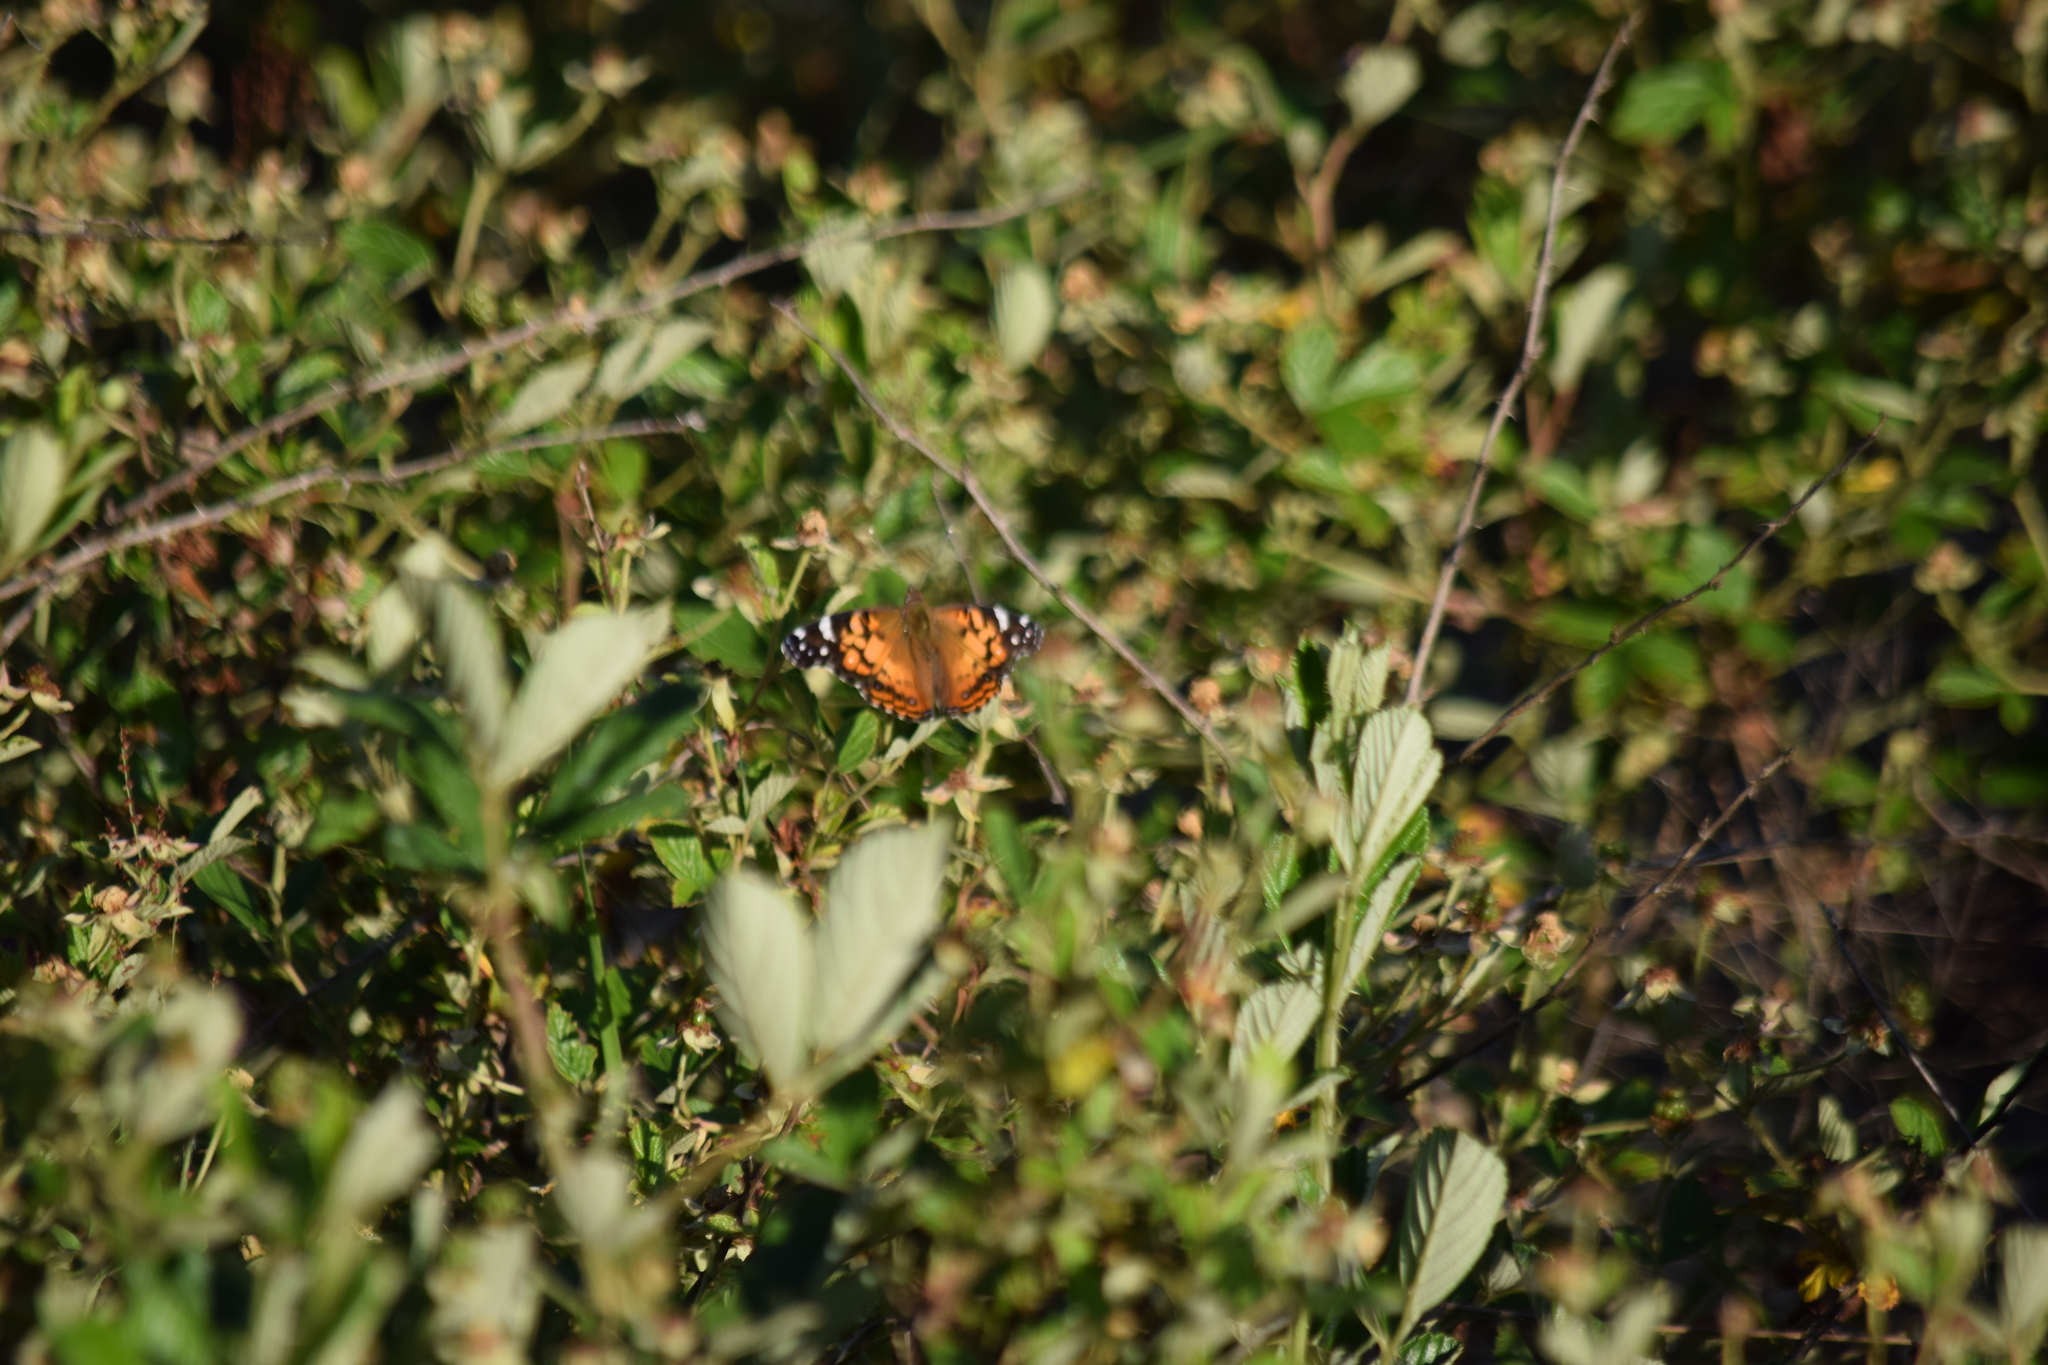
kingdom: Animalia
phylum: Arthropoda
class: Insecta
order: Lepidoptera
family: Nymphalidae
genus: Vanessa
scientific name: Vanessa virginiensis
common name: American lady
